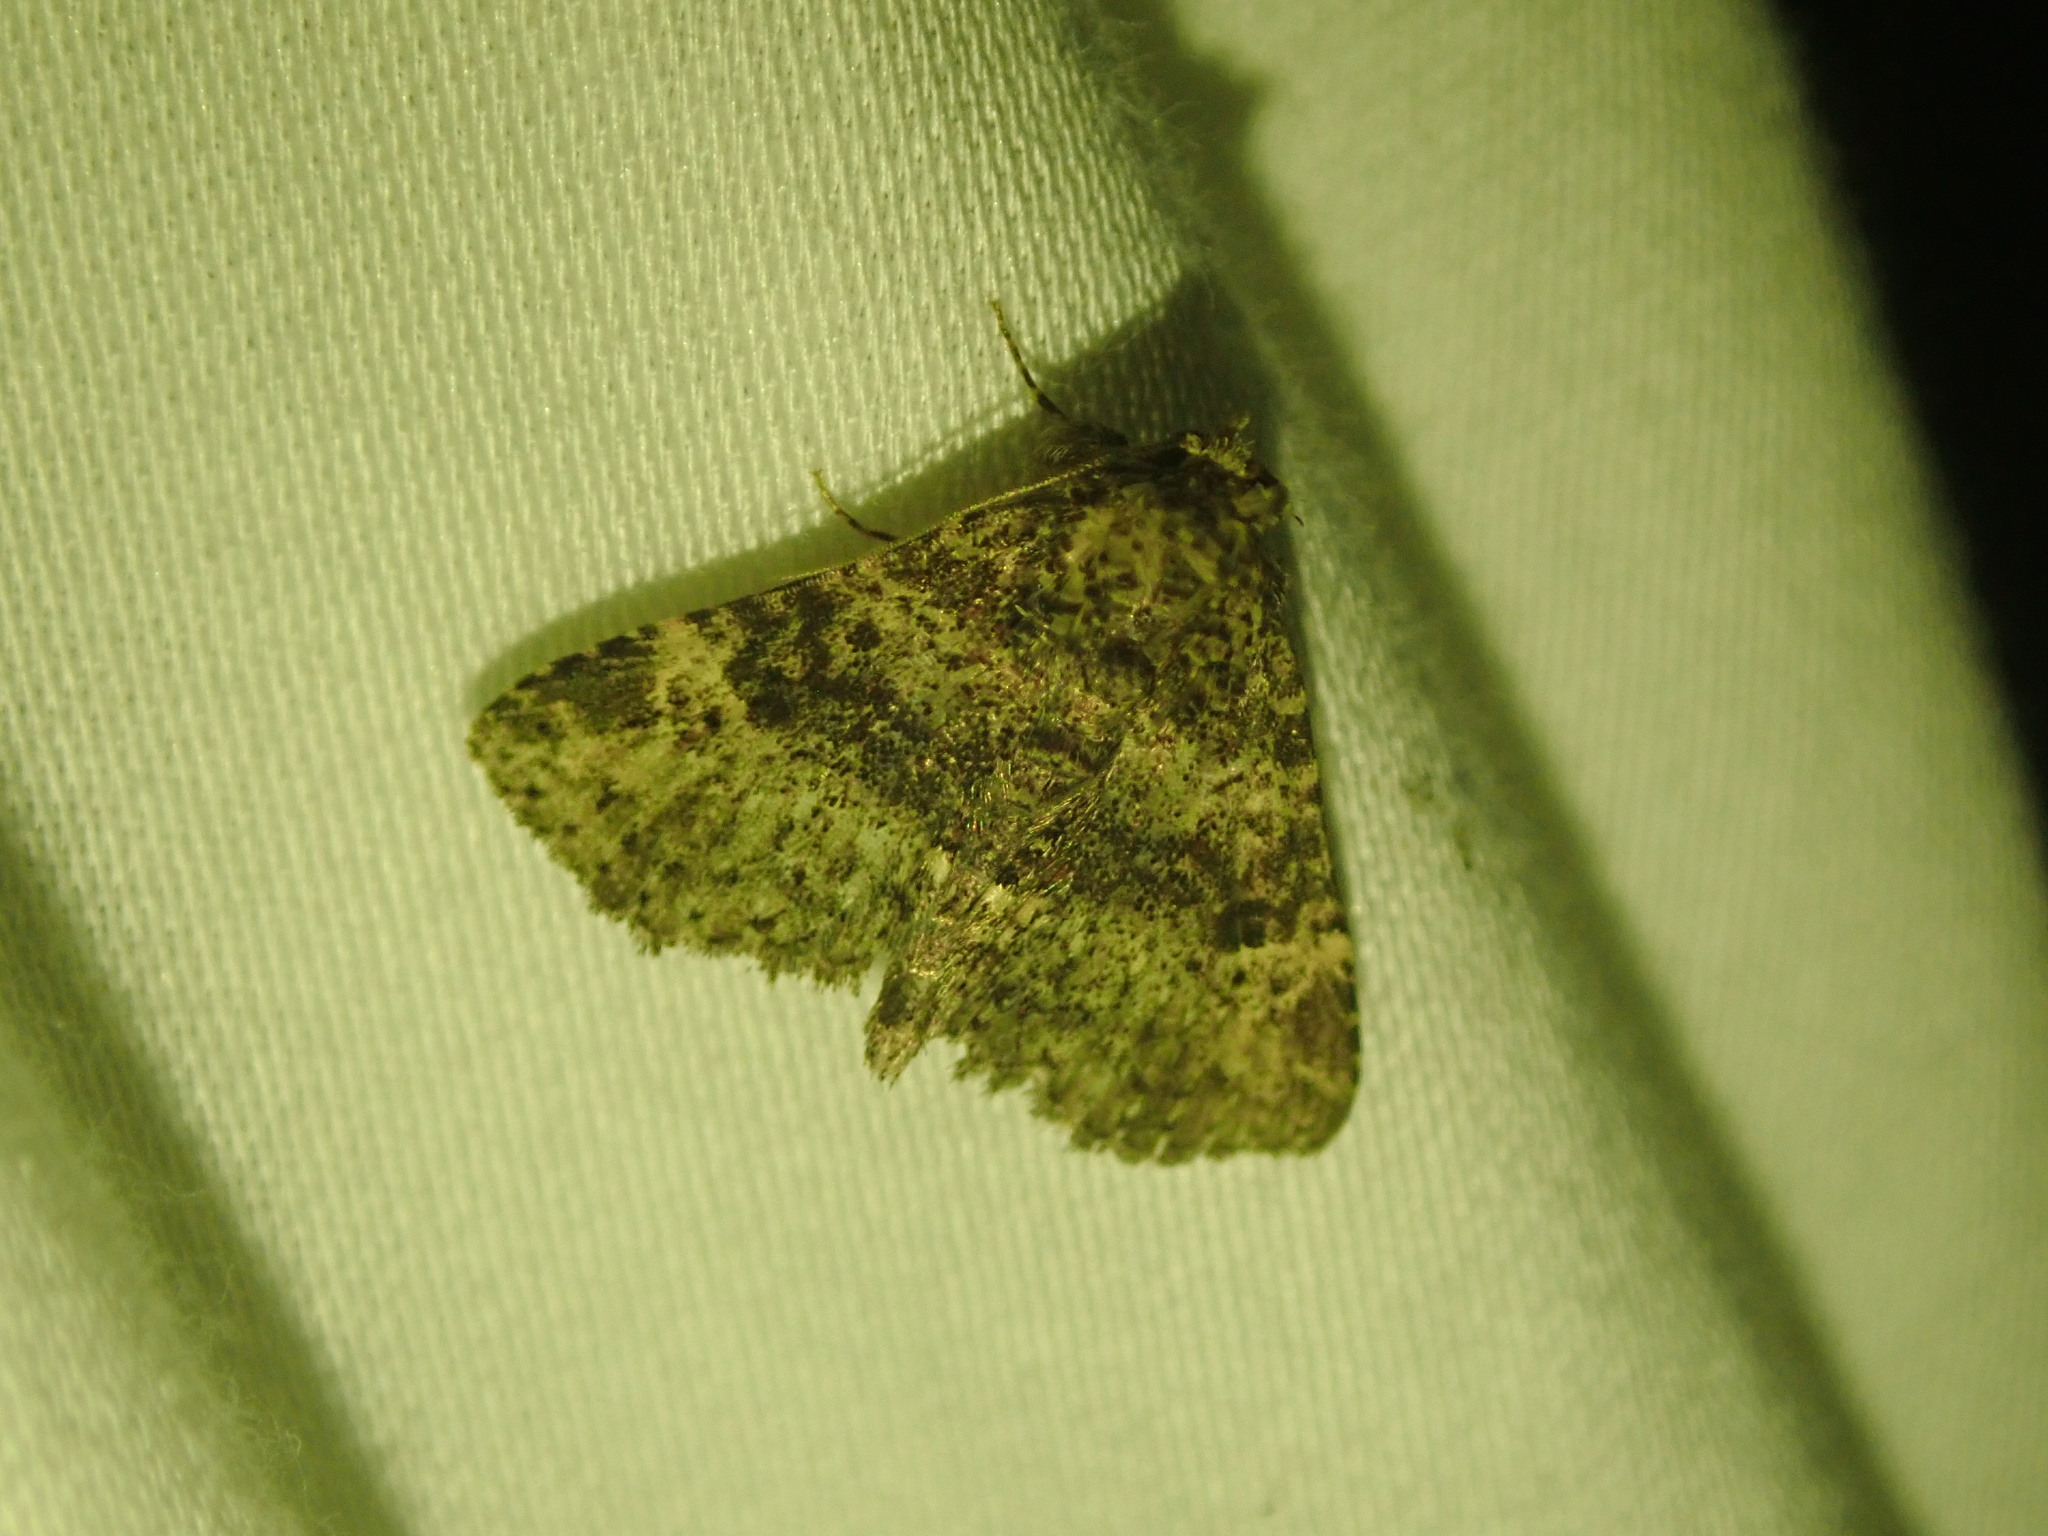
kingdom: Animalia
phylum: Arthropoda
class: Insecta
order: Lepidoptera
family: Erebidae
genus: Metalectra
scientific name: Metalectra discalis
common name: Common fungus moth
